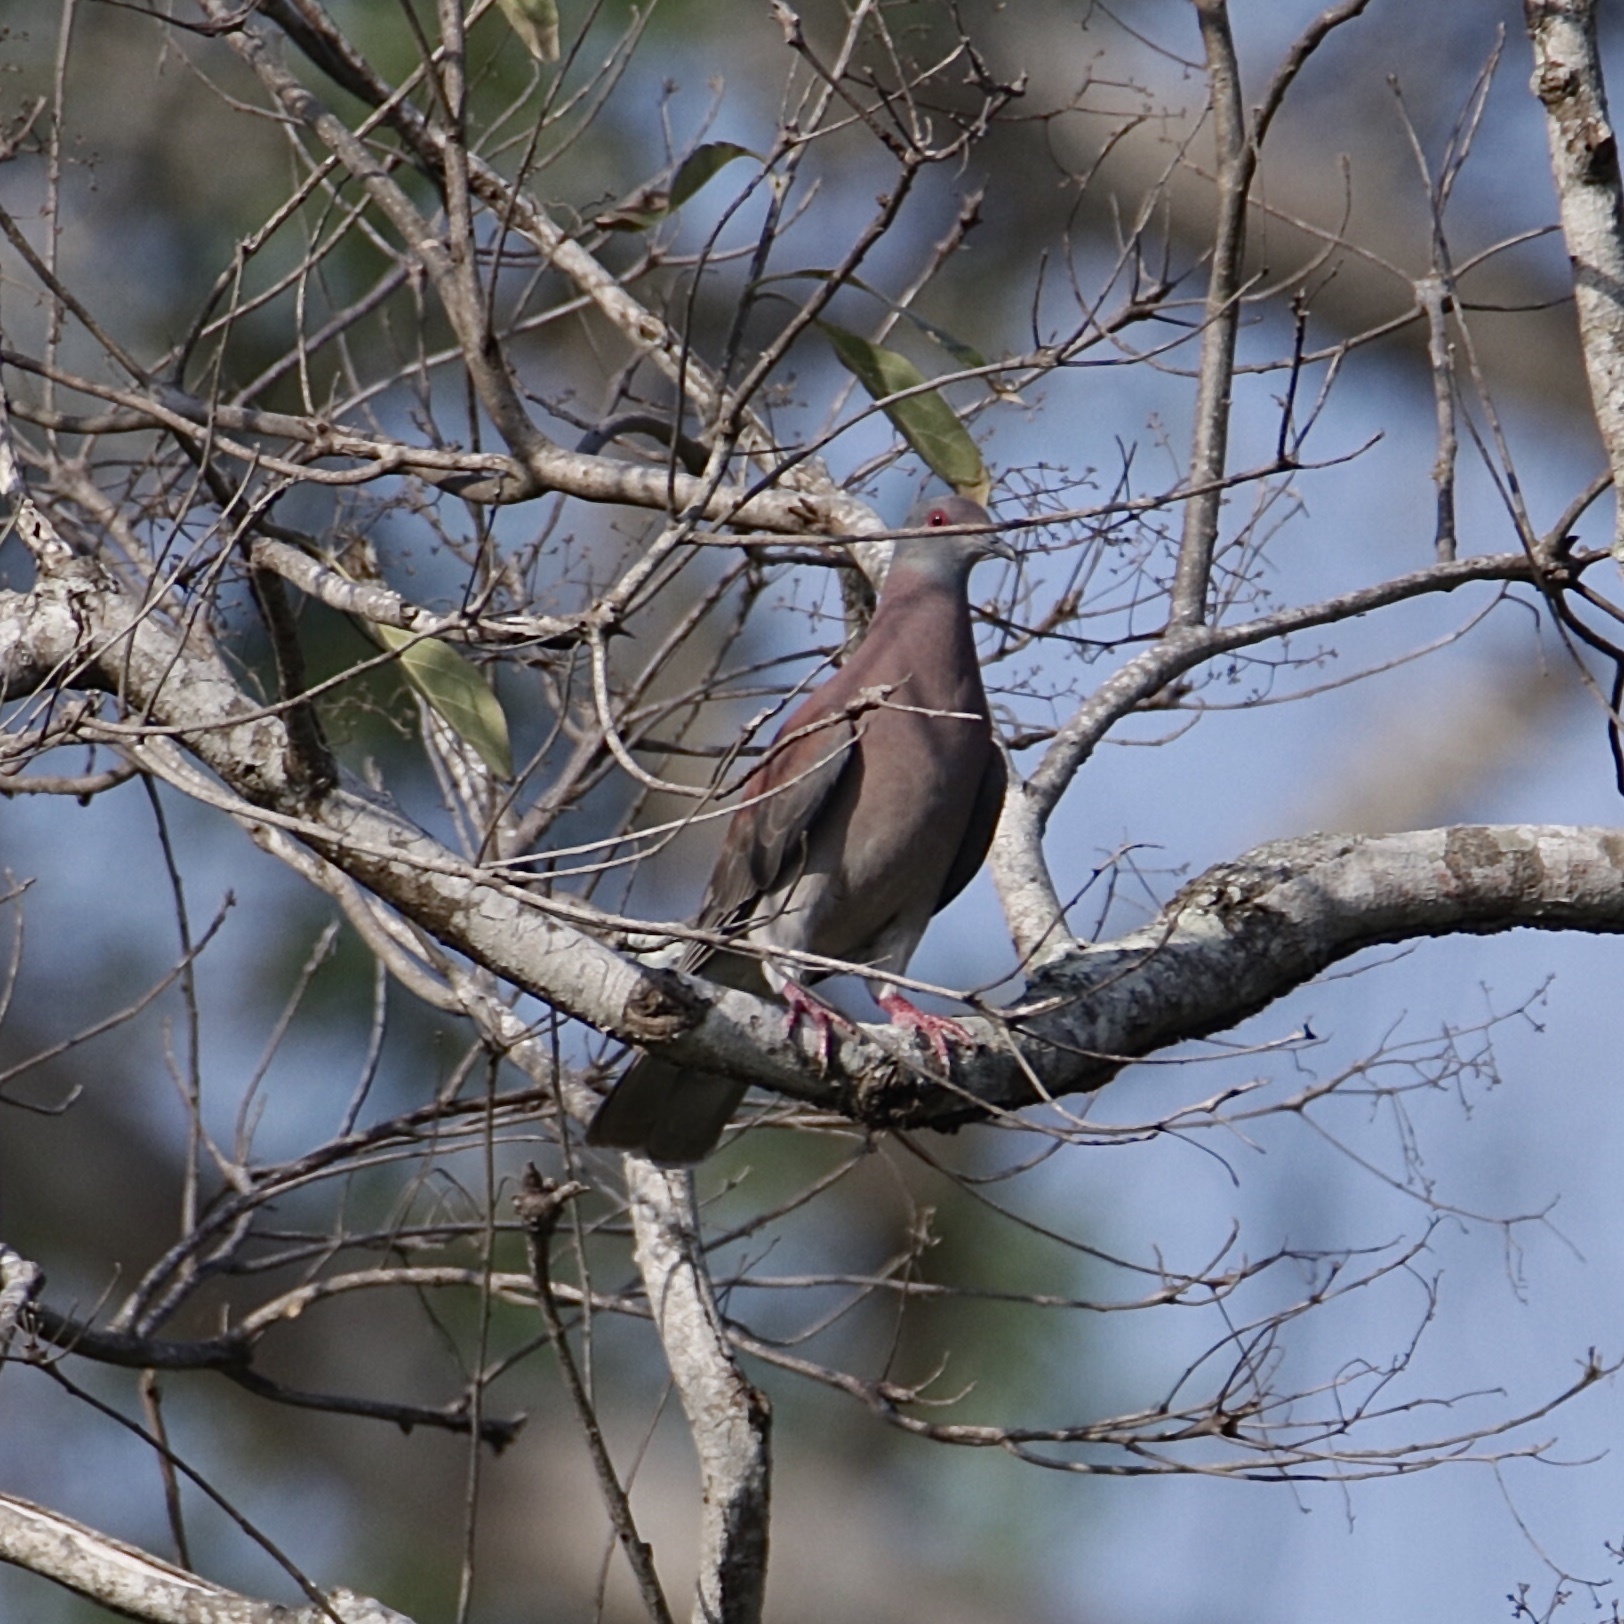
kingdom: Animalia
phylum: Chordata
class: Aves
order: Columbiformes
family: Columbidae
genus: Patagioenas
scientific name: Patagioenas cayennensis
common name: Pale-vented pigeon
